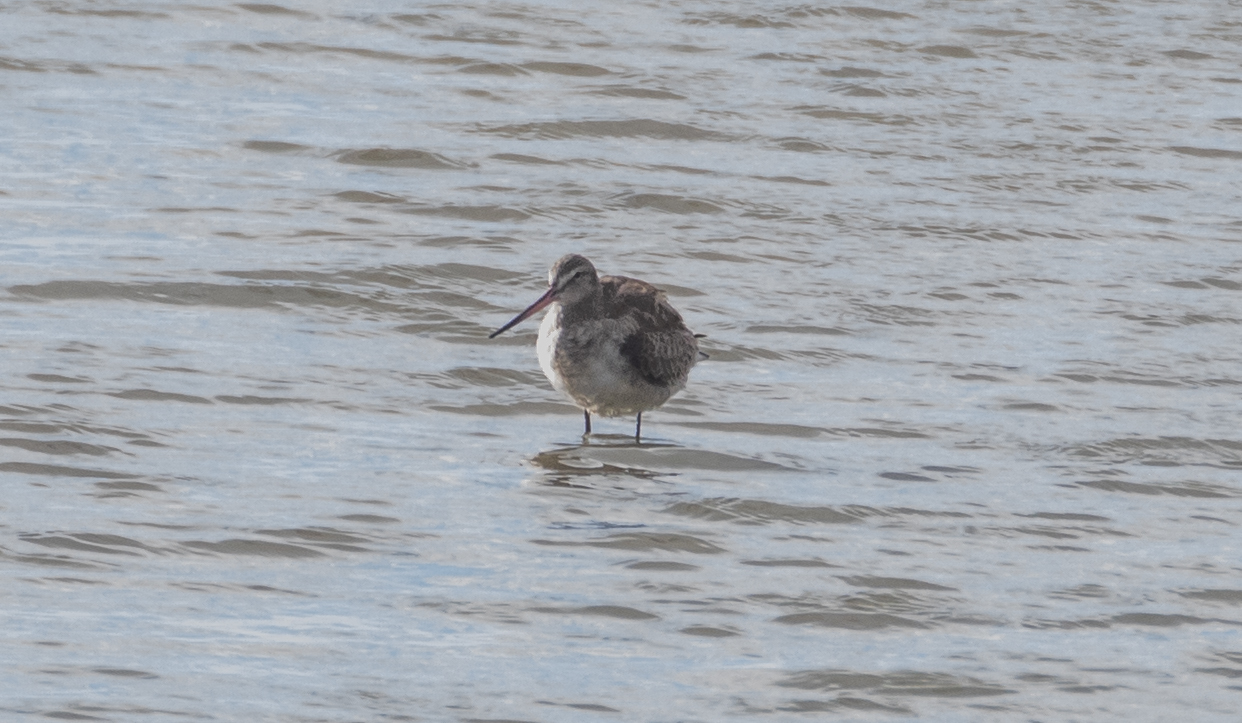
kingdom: Animalia
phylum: Chordata
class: Aves
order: Charadriiformes
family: Scolopacidae
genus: Limosa
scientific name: Limosa haemastica
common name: Hudsonian godwit
